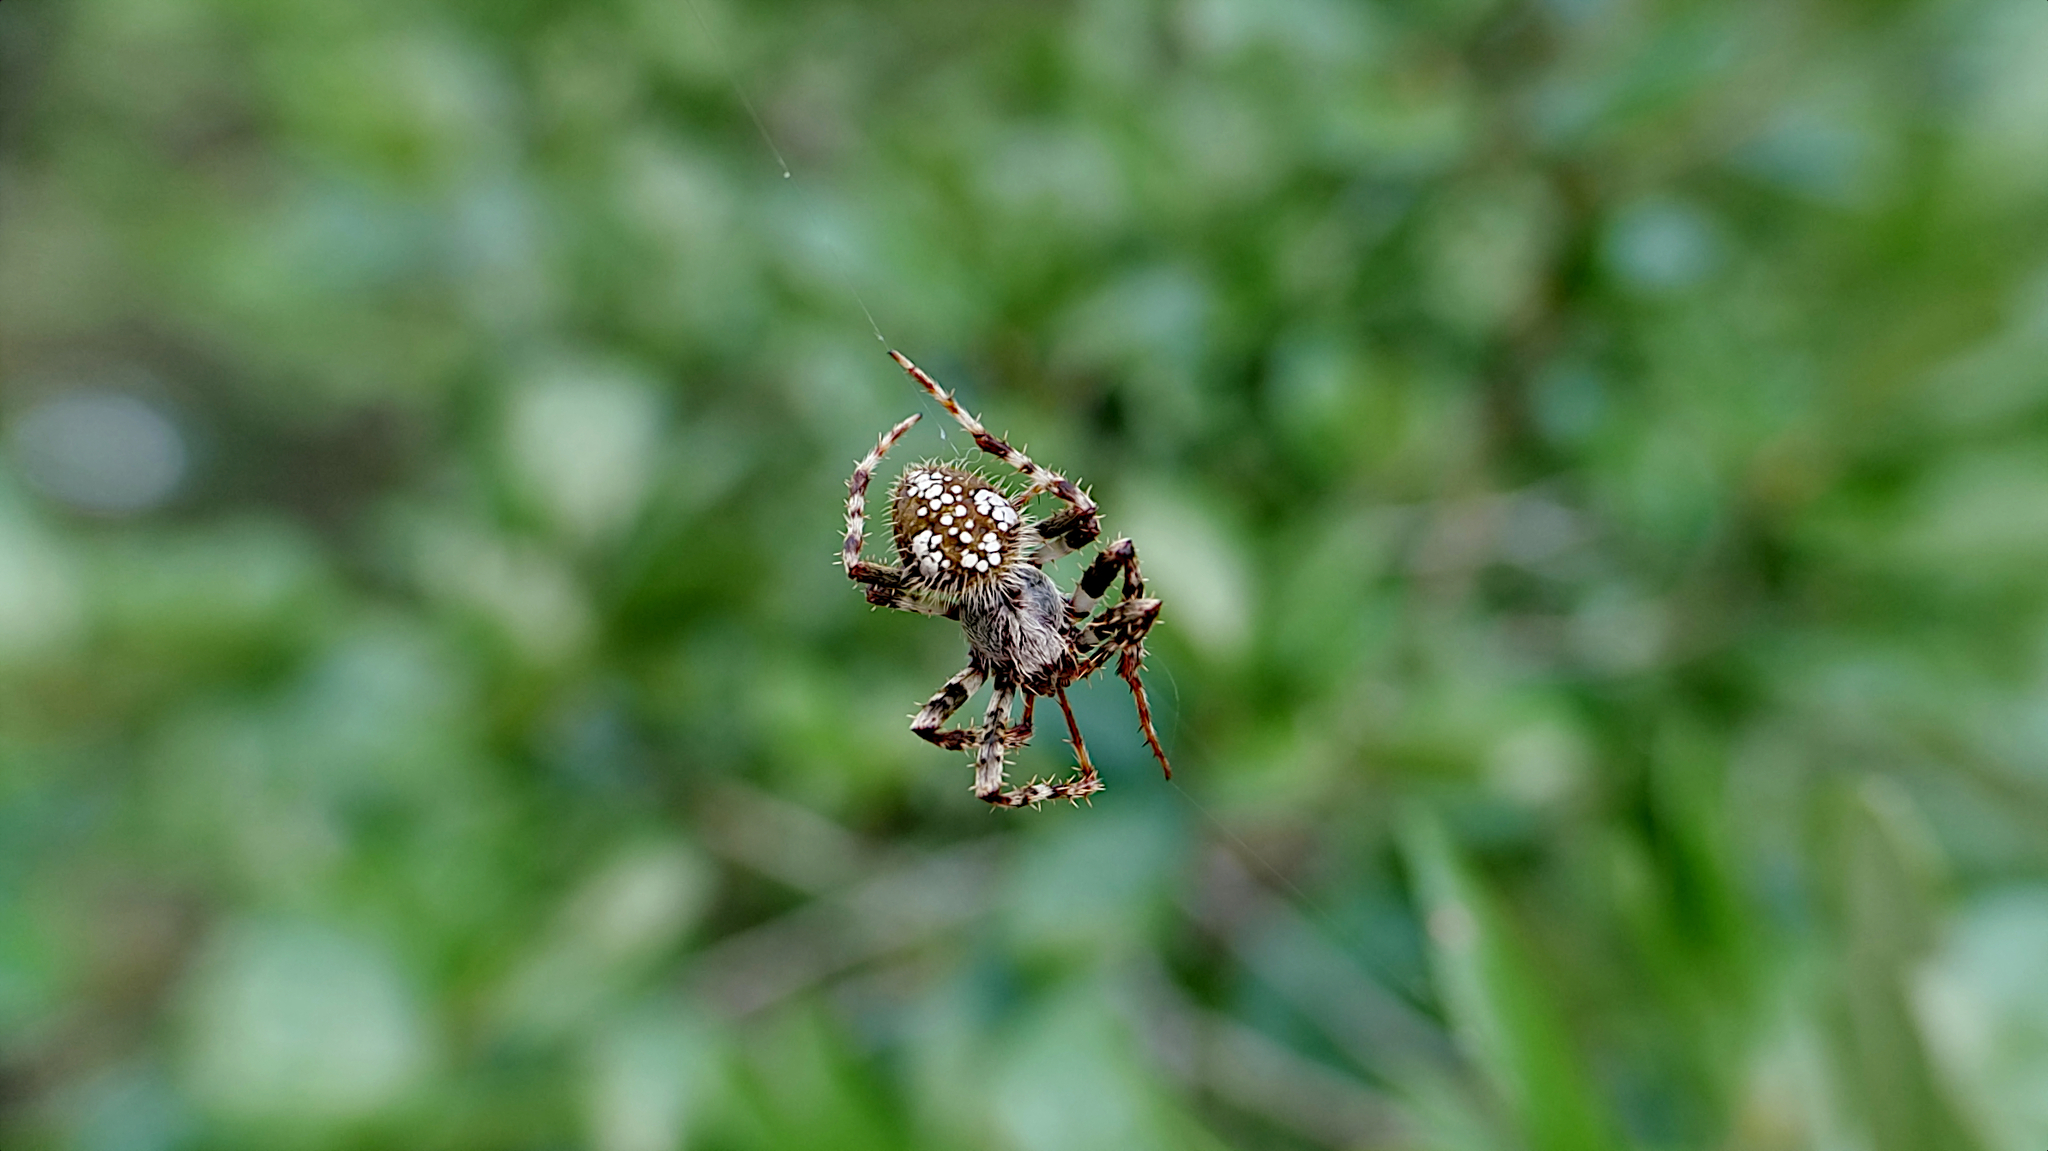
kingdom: Animalia
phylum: Arthropoda
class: Arachnida
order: Araneae
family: Araneidae
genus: Eriophora
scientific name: Eriophora ravilla
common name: Orb weavers
